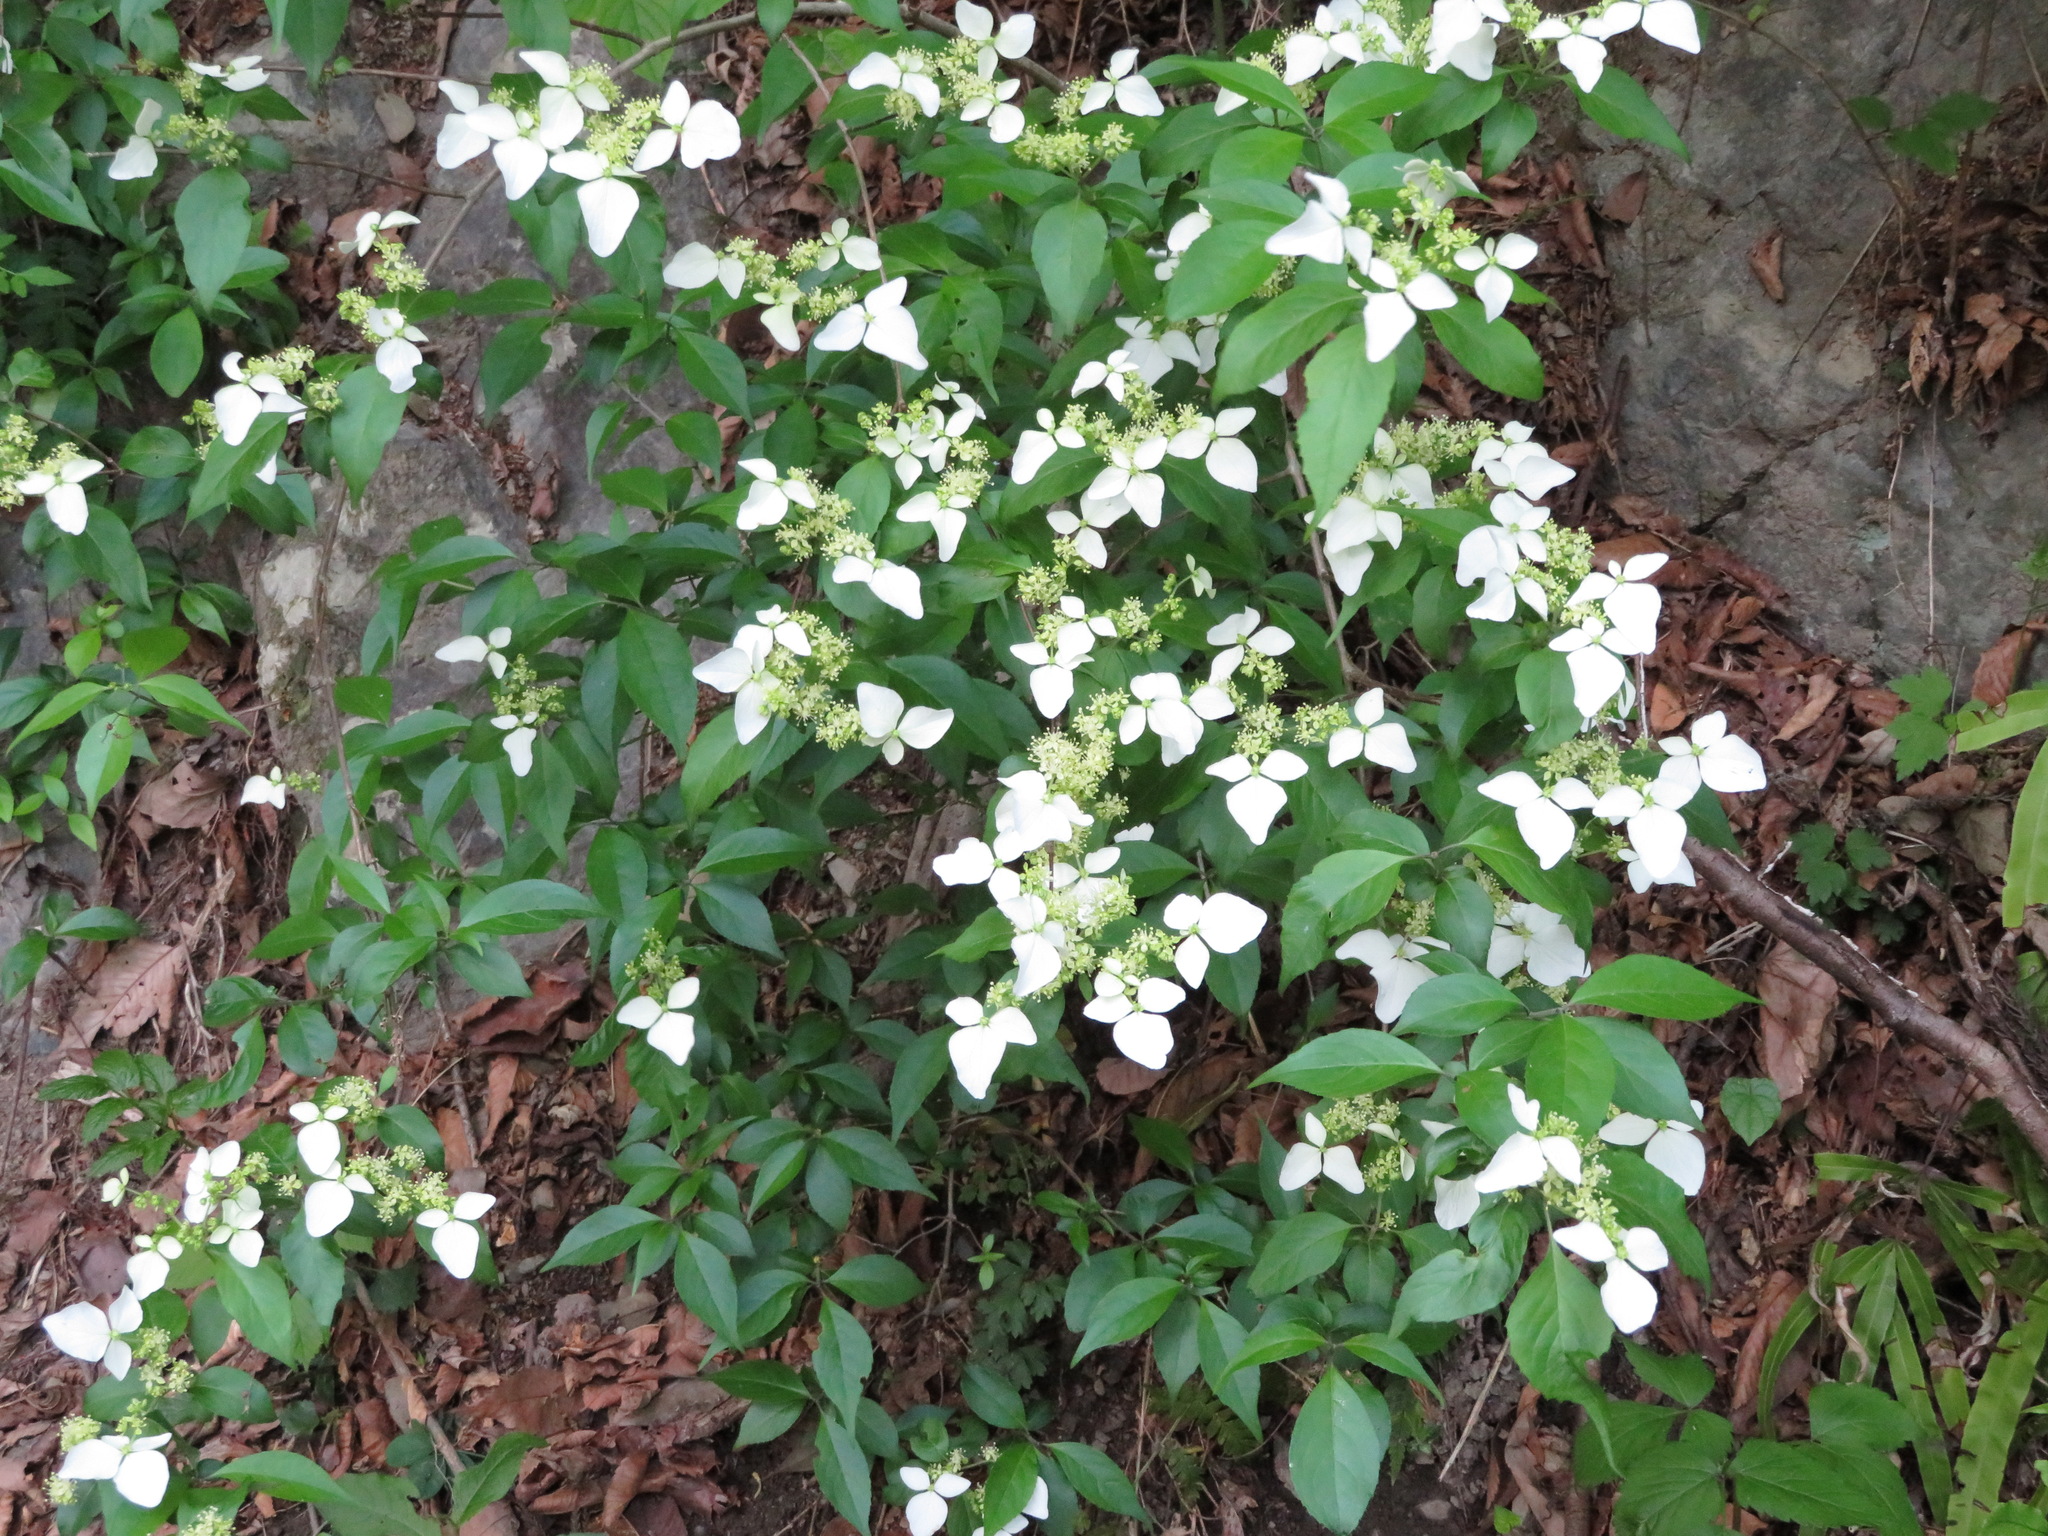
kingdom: Plantae
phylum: Tracheophyta
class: Magnoliopsida
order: Cornales
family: Hydrangeaceae
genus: Hydrangea
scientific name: Hydrangea scandens
